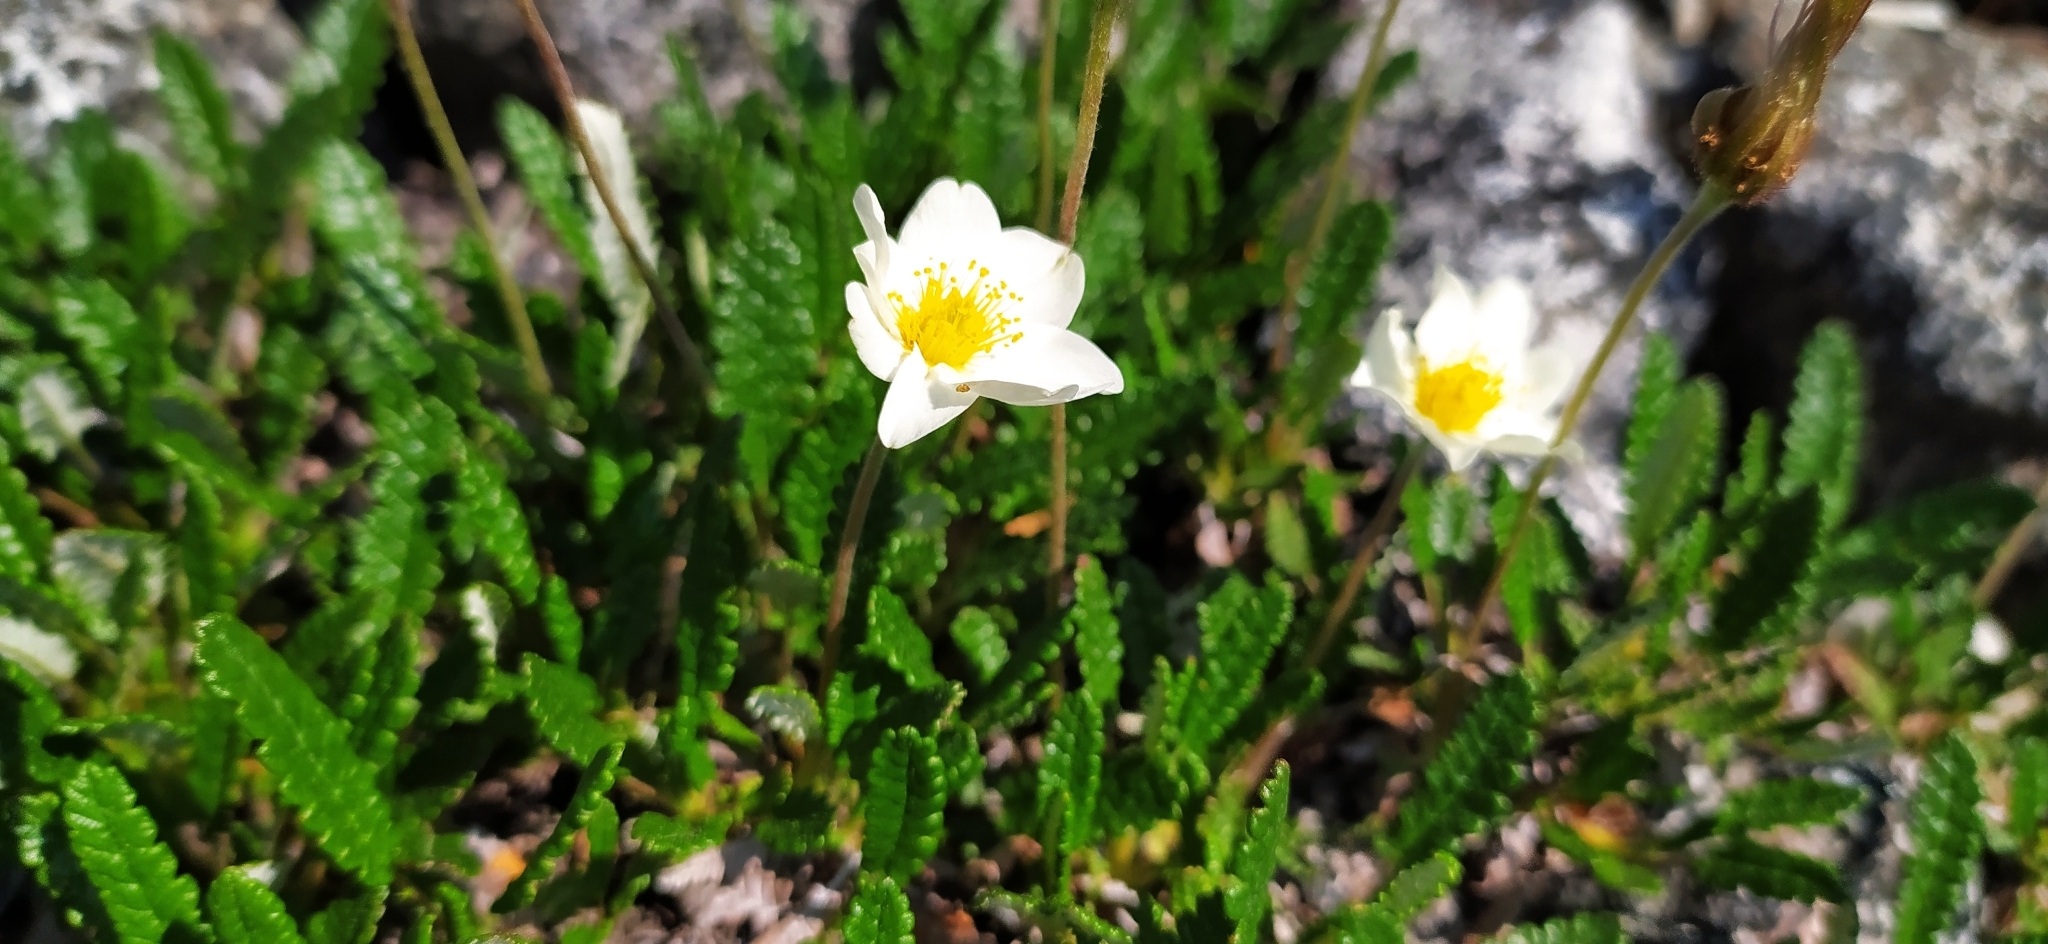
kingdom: Plantae
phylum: Tracheophyta
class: Magnoliopsida
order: Rosales
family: Rosaceae
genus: Dryas
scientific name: Dryas octopetala
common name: Eight-petal mountain-avens
